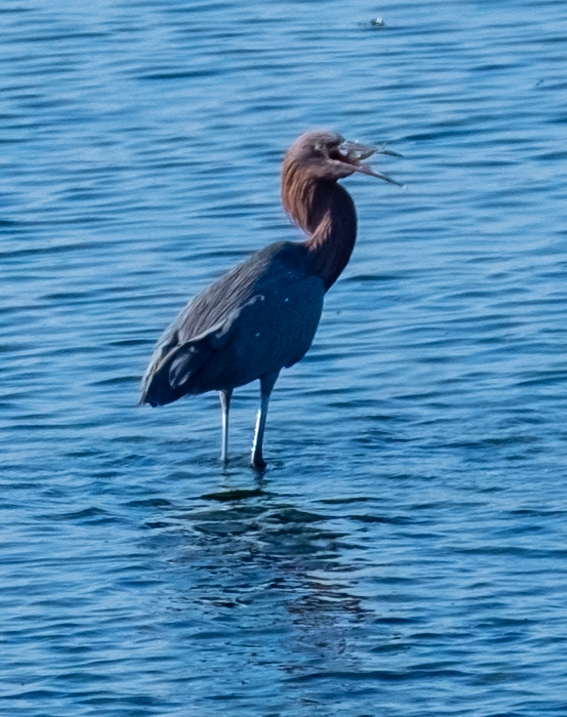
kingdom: Animalia
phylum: Chordata
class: Aves
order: Pelecaniformes
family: Ardeidae
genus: Egretta
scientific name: Egretta rufescens
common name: Reddish egret
